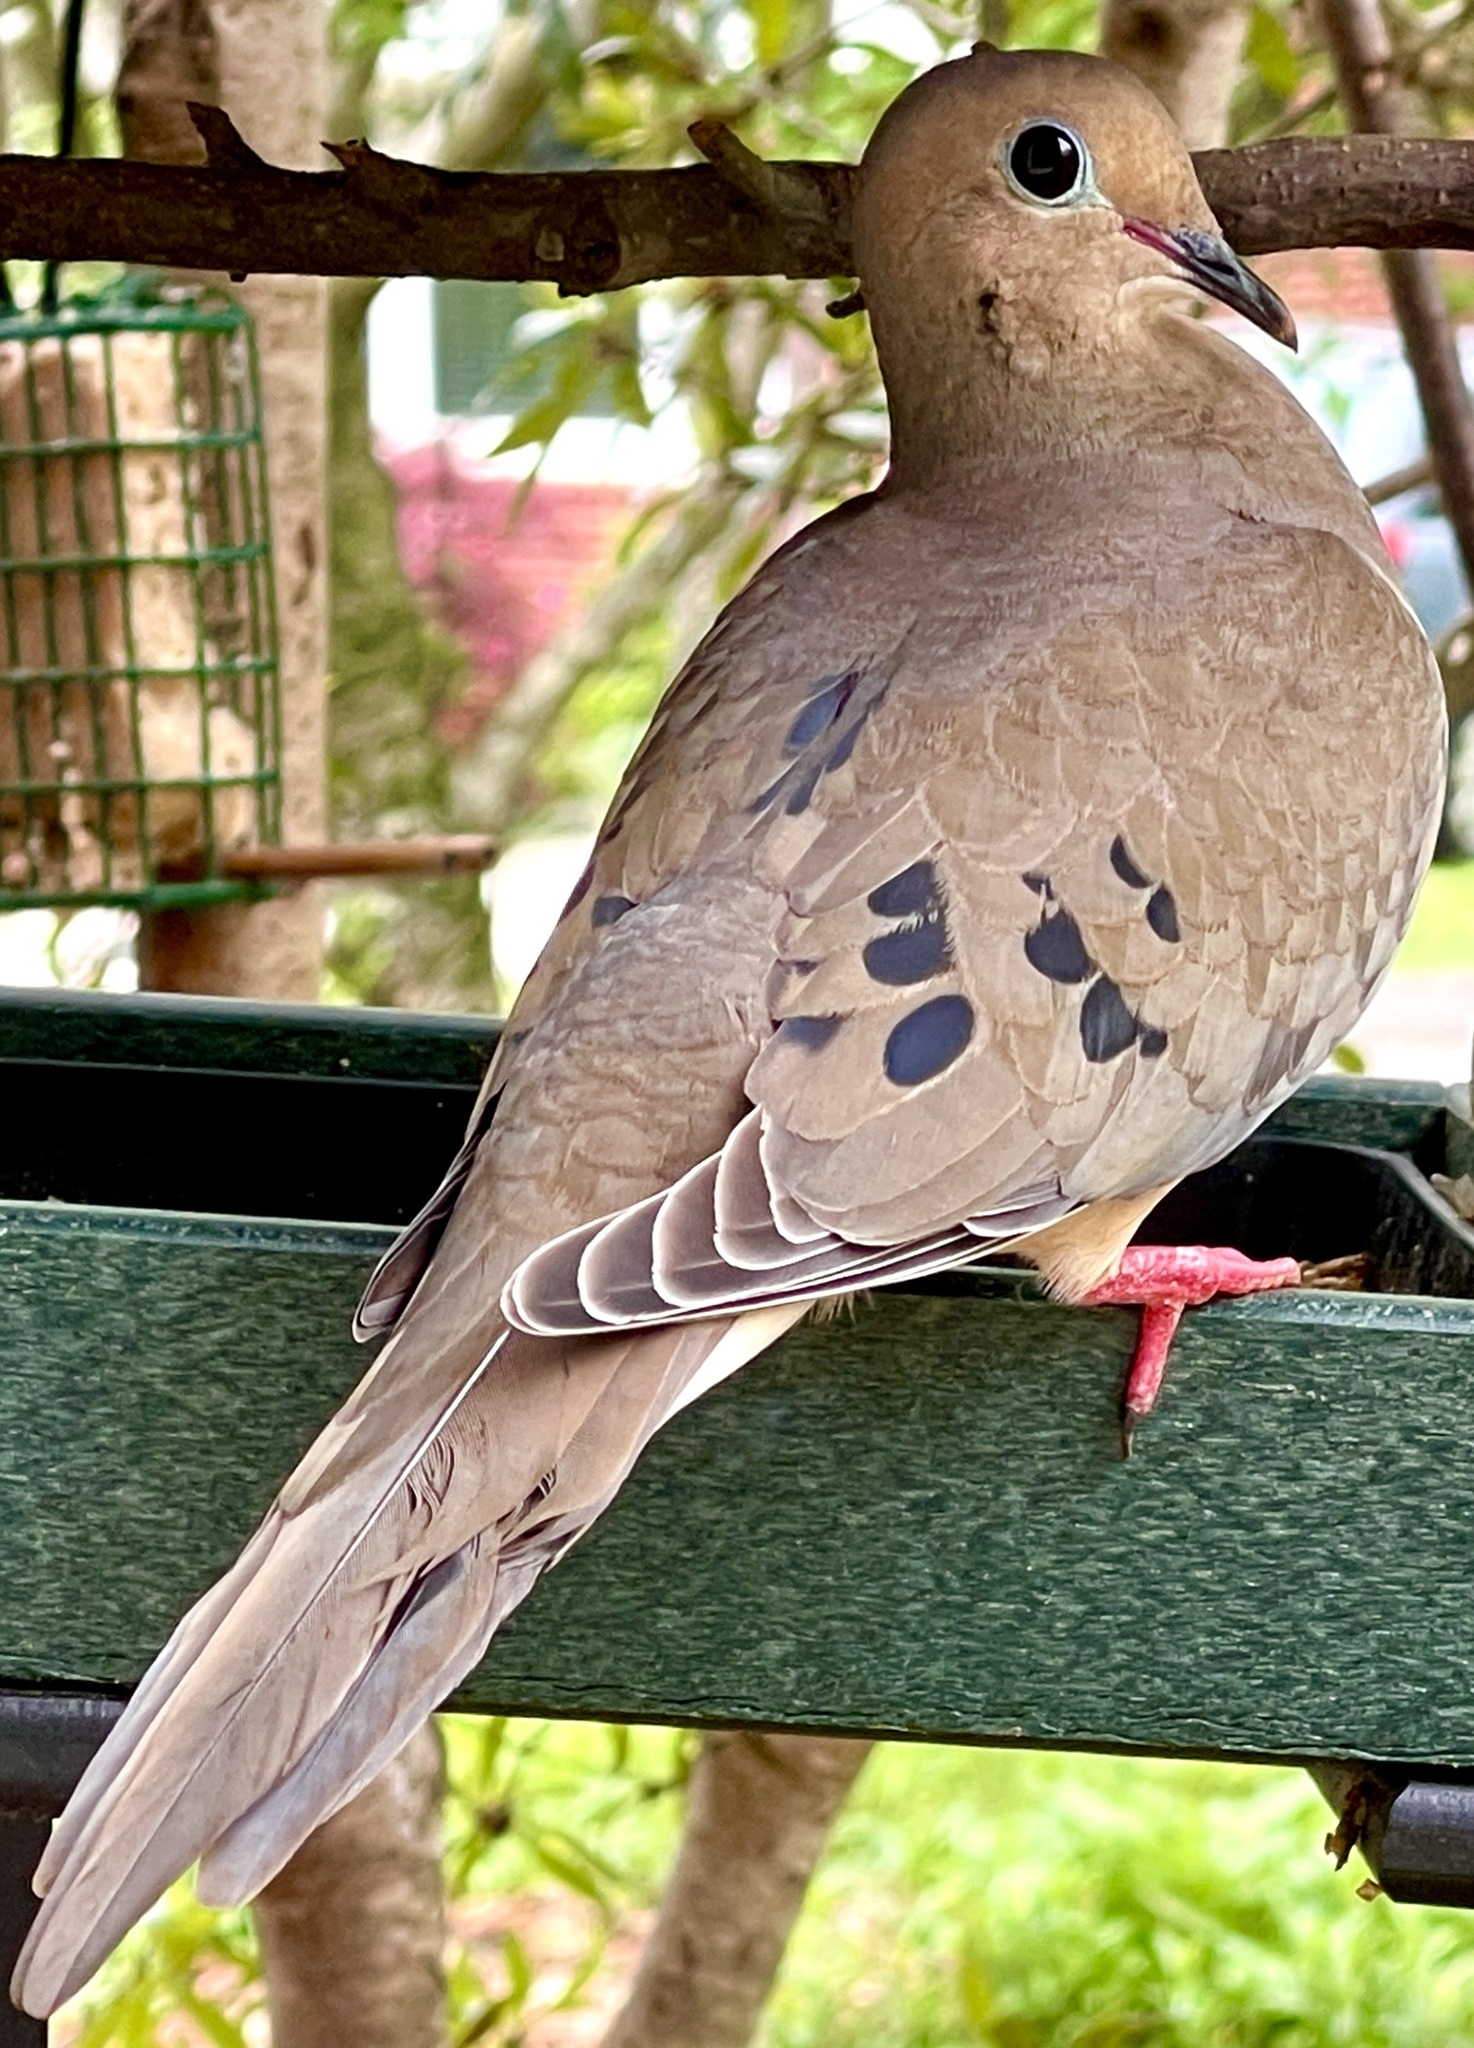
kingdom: Animalia
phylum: Chordata
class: Aves
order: Columbiformes
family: Columbidae
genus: Zenaida
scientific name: Zenaida macroura
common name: Mourning dove
